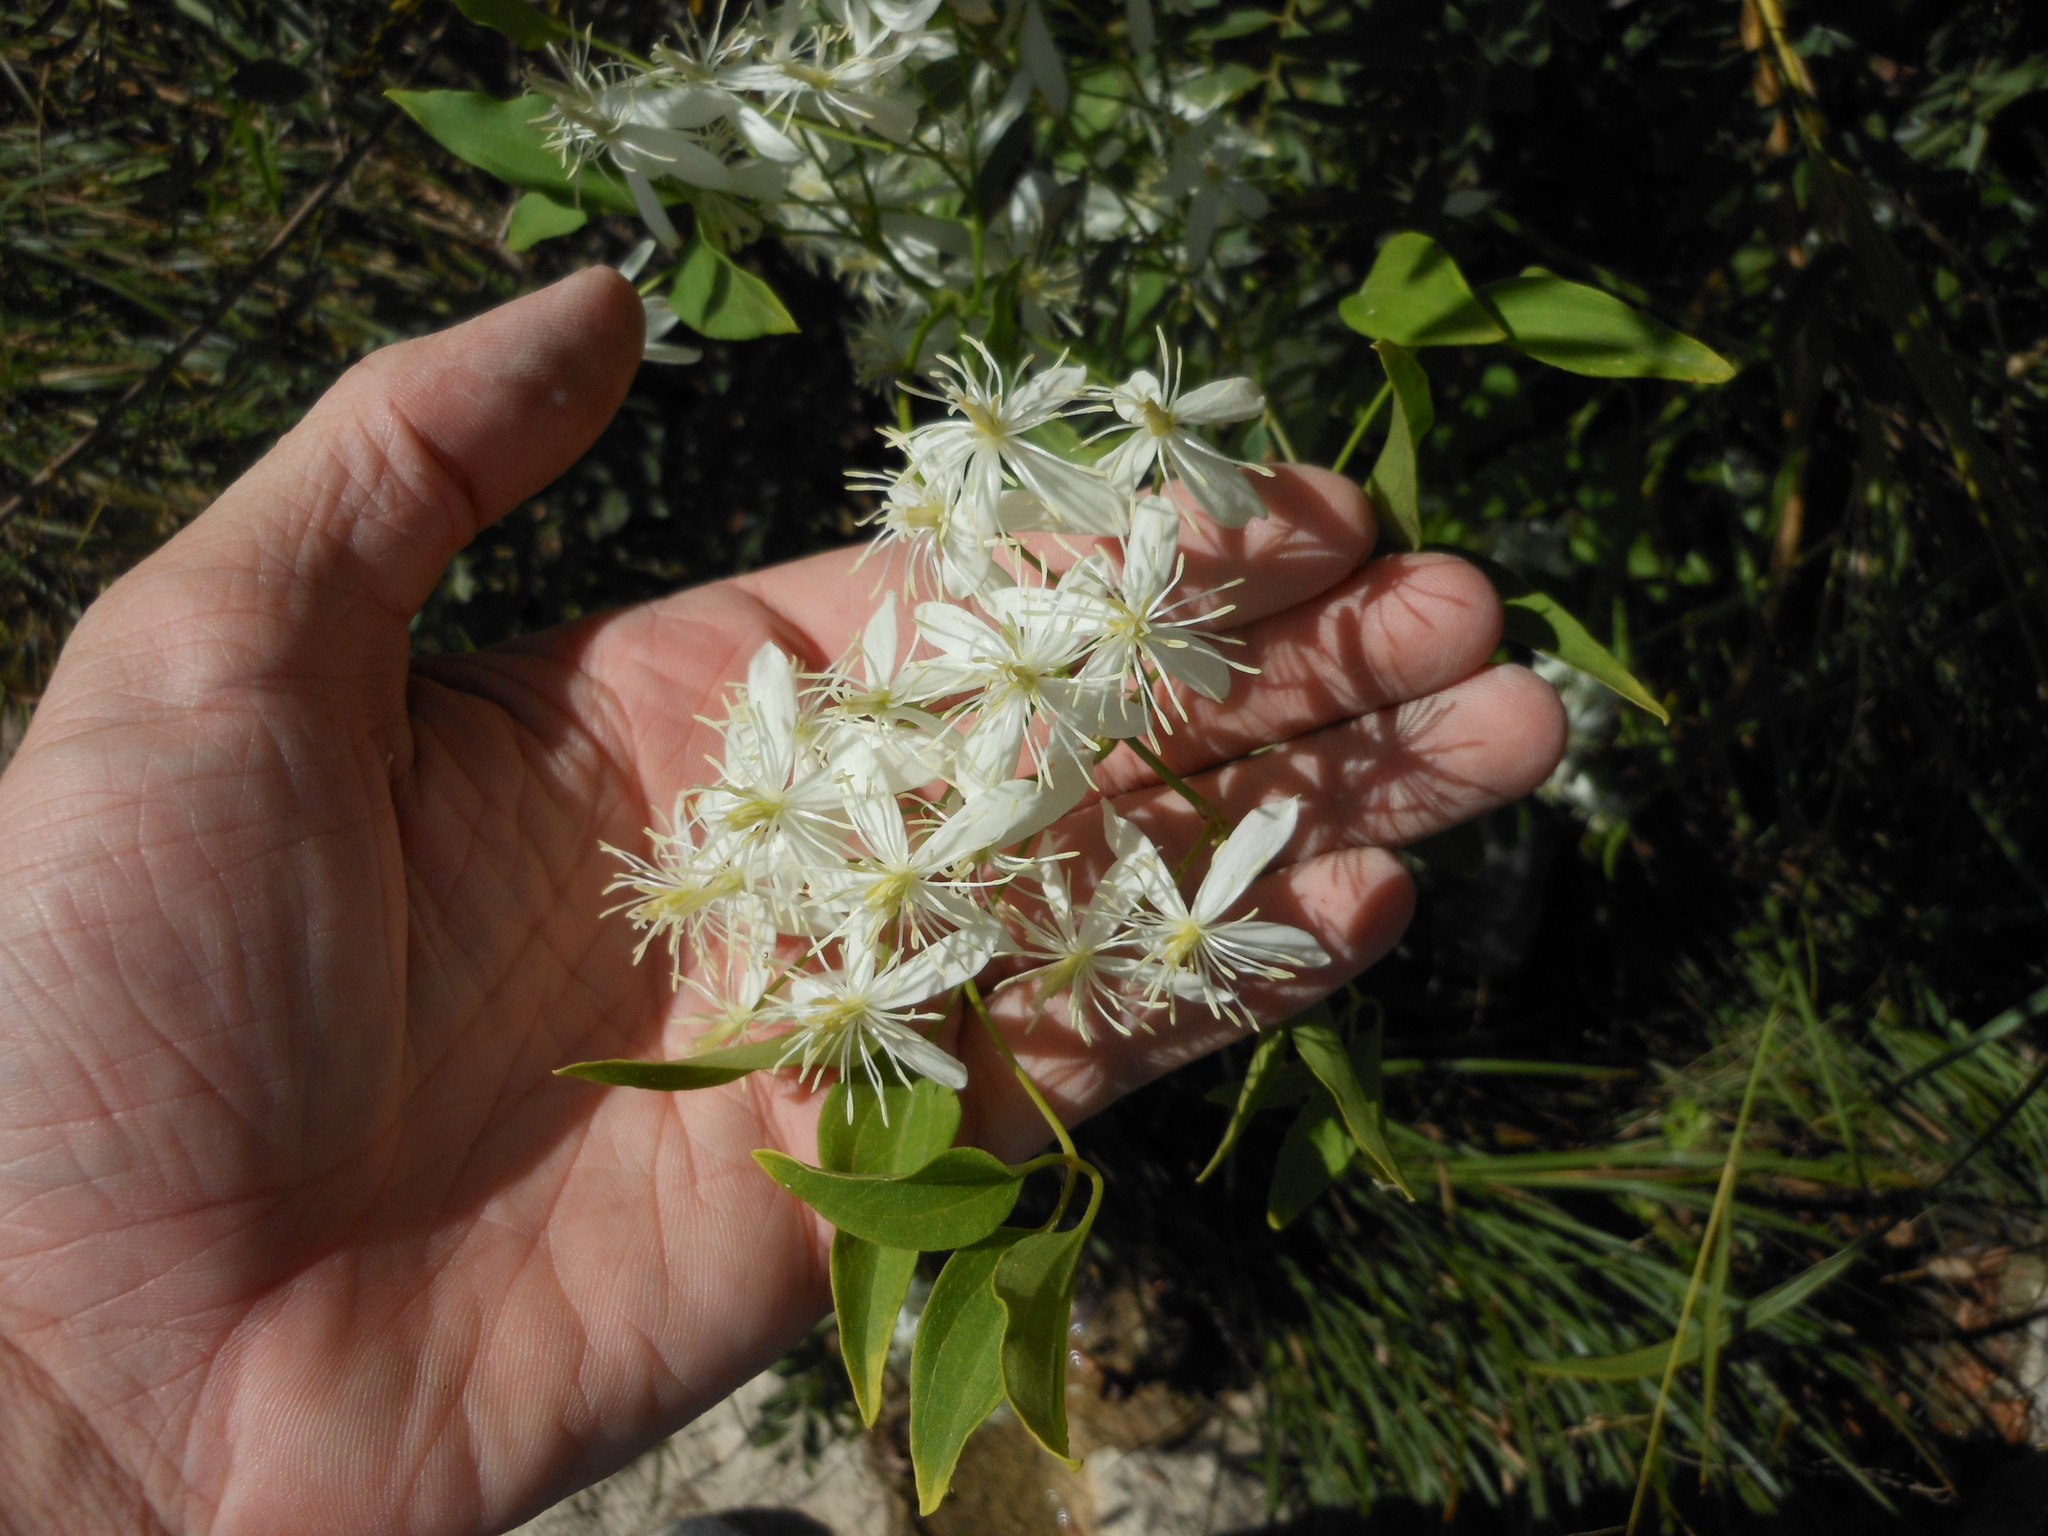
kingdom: Plantae
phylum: Tracheophyta
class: Magnoliopsida
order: Ranunculales
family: Ranunculaceae
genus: Clematis
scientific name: Clematis terniflora
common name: Sweet autumn clematis
